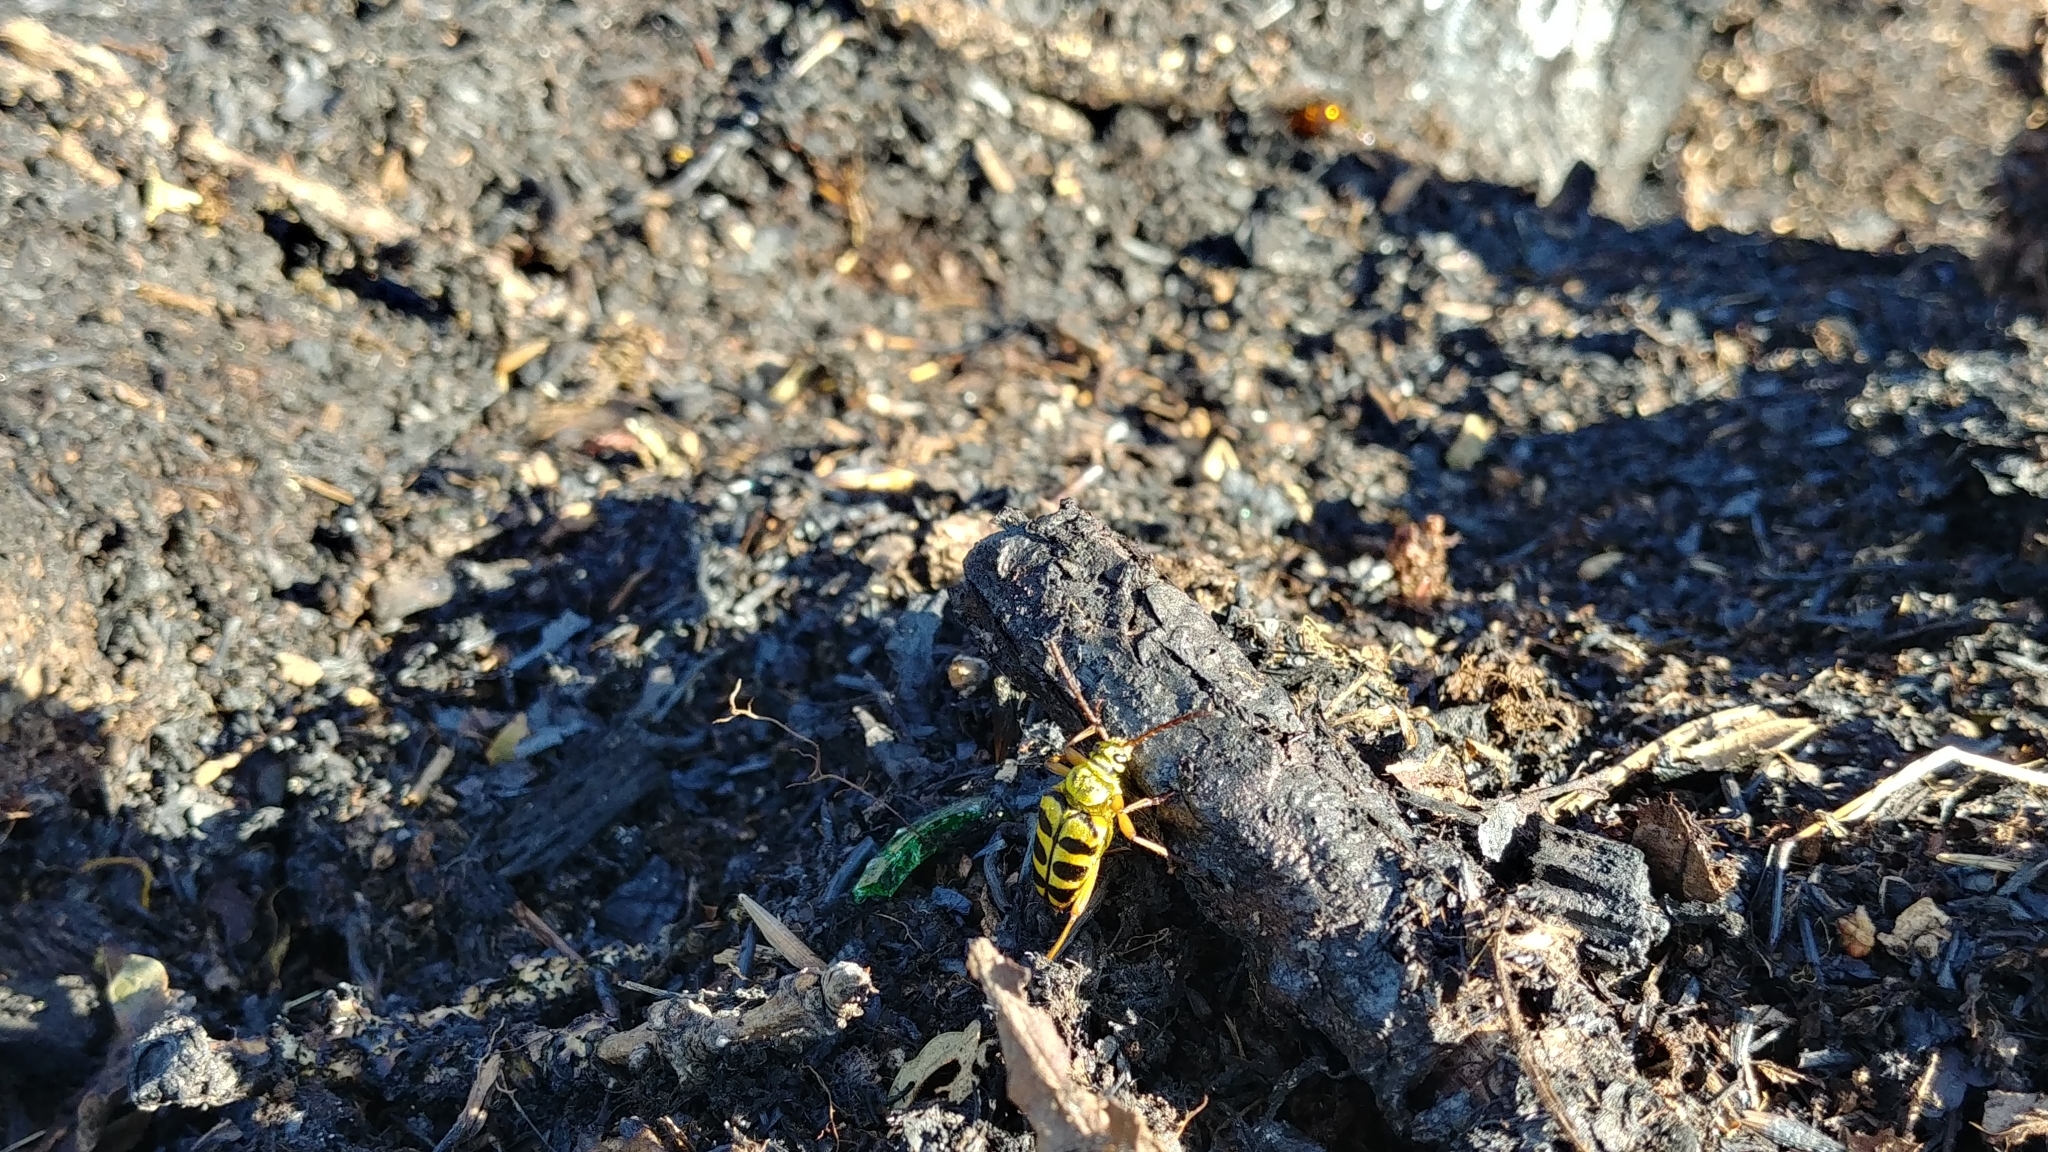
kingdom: Animalia
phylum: Arthropoda
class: Insecta
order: Coleoptera
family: Cerambycidae
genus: Strophiona
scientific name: Strophiona laeta
